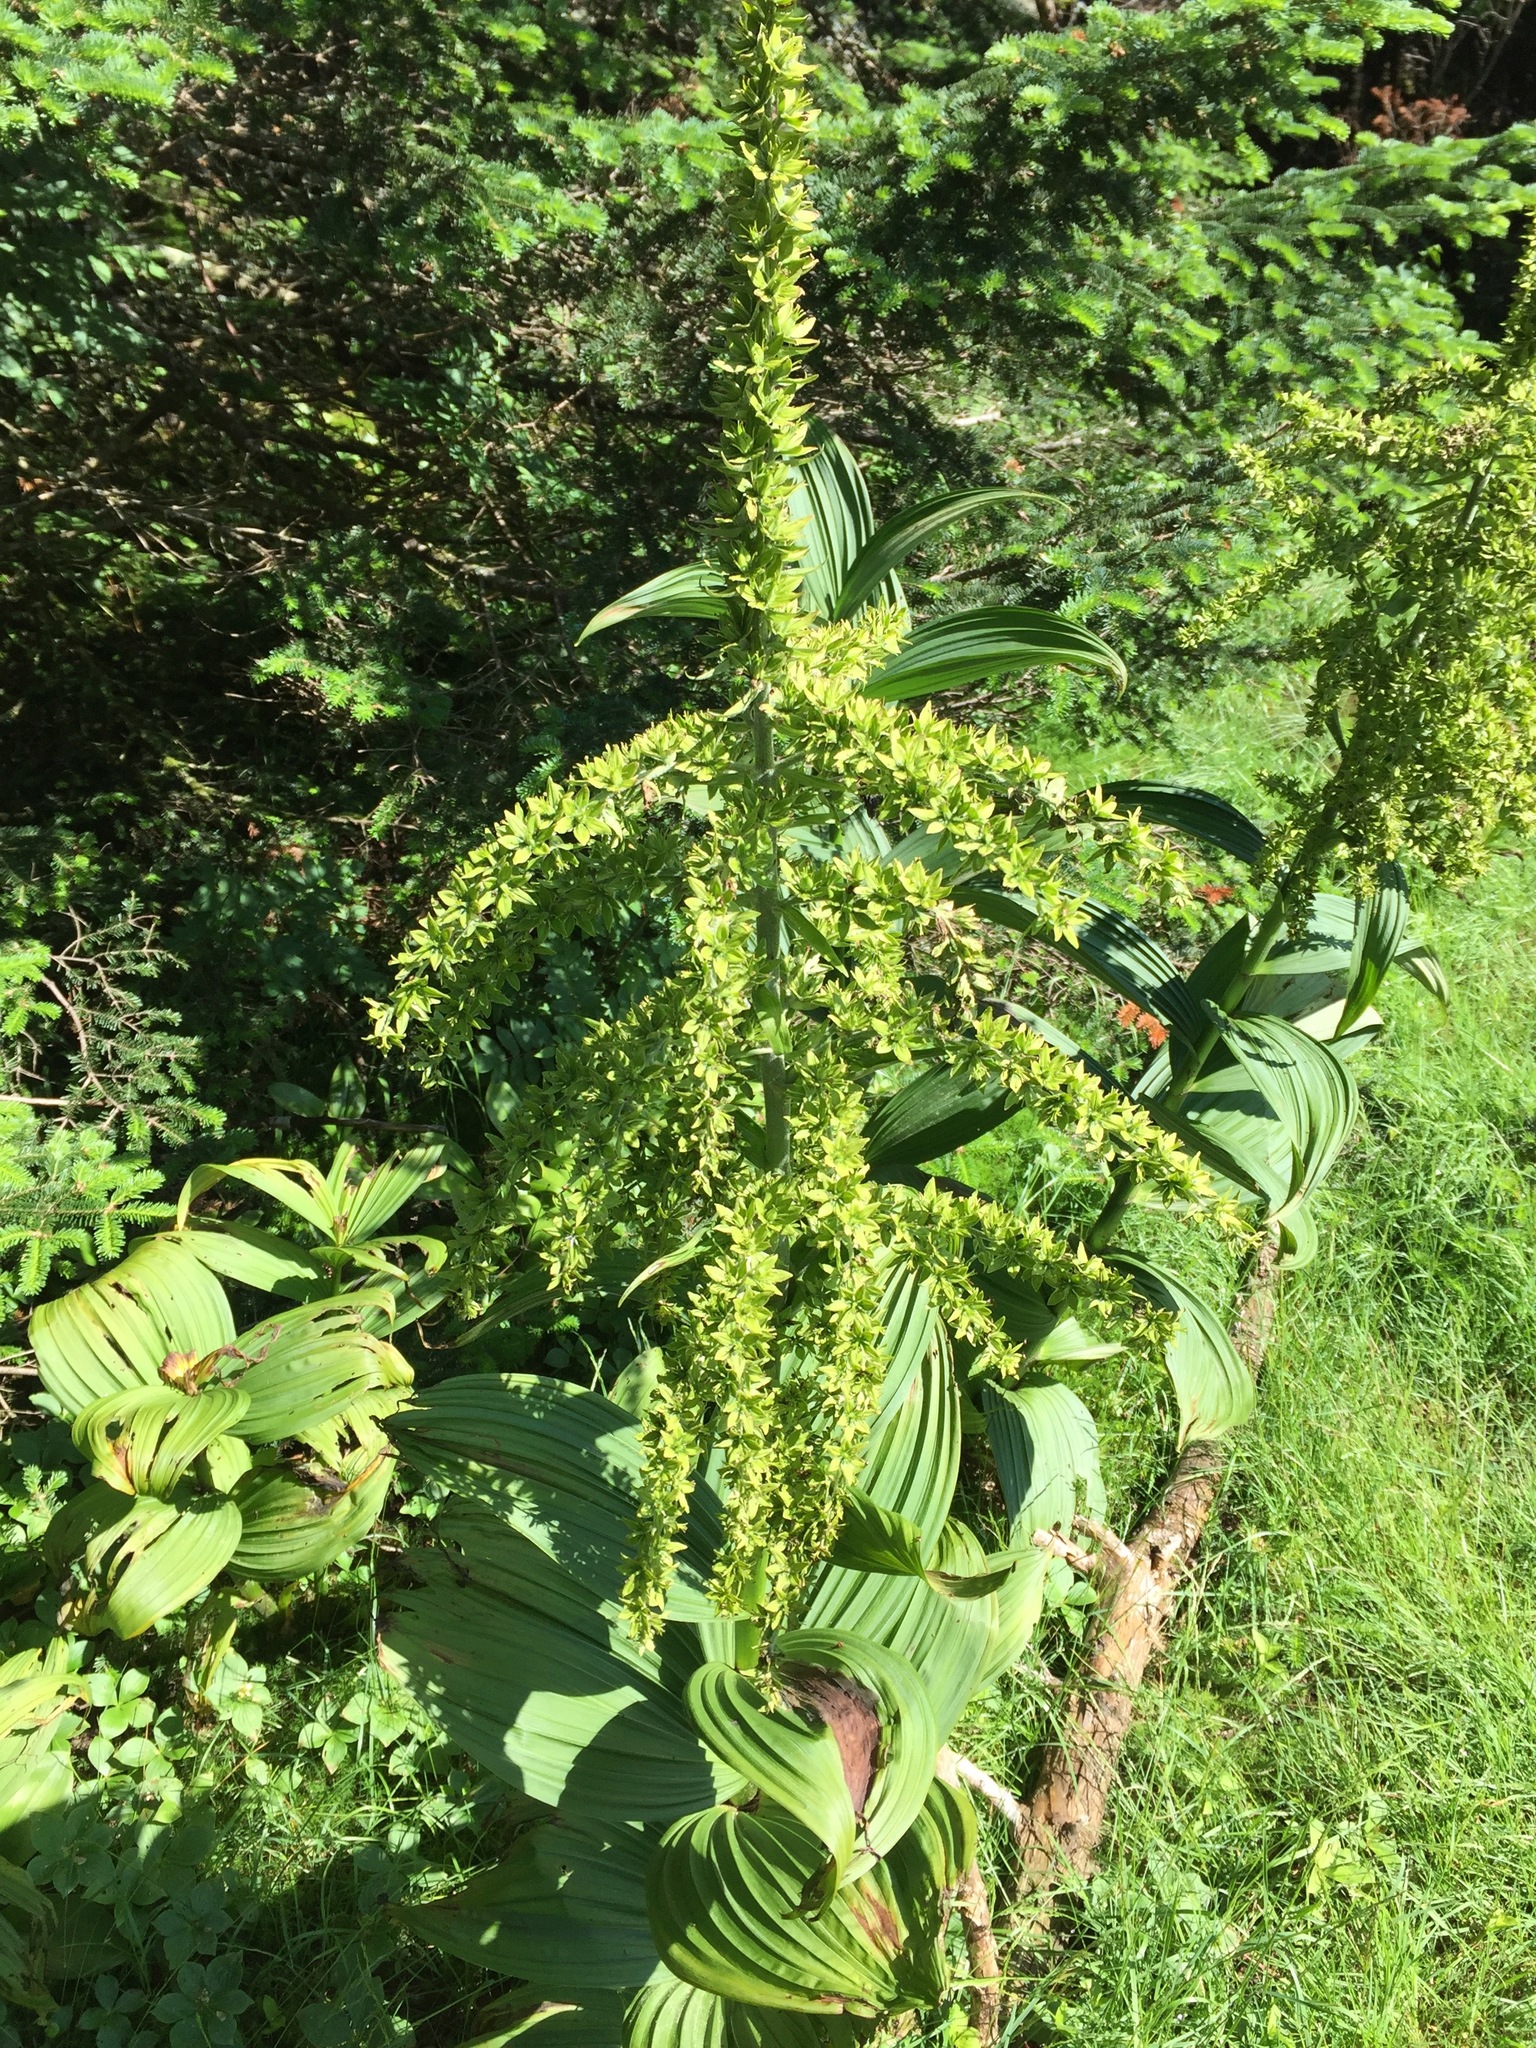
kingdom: Plantae
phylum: Tracheophyta
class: Liliopsida
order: Liliales
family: Melanthiaceae
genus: Veratrum
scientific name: Veratrum viride
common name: American false hellebore
